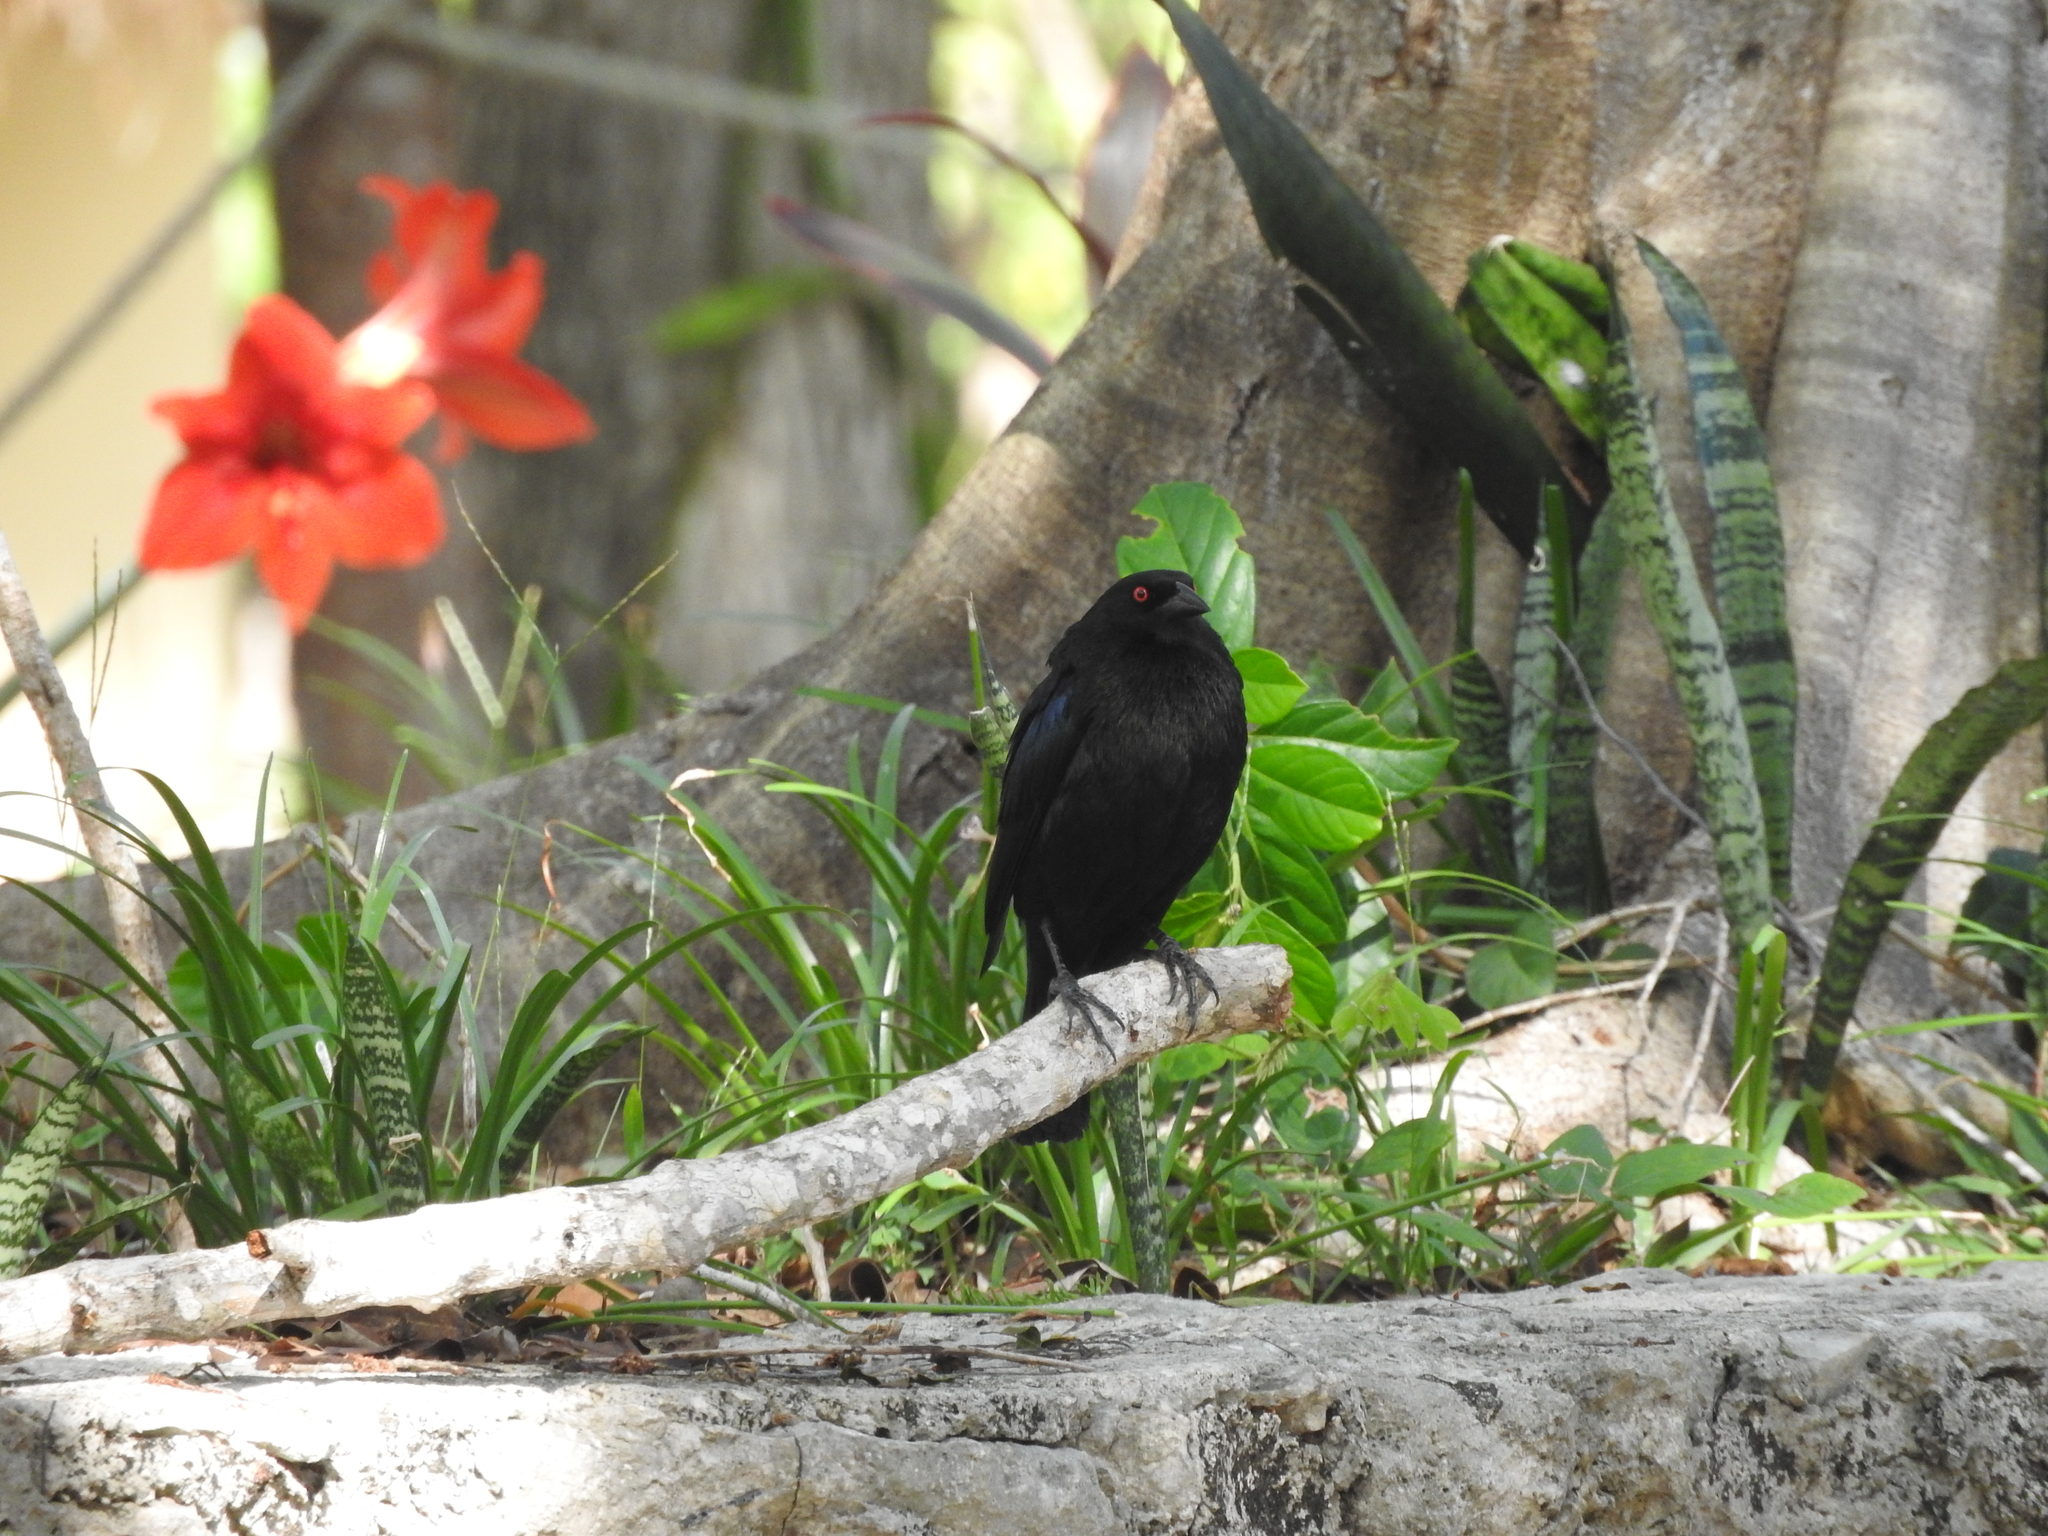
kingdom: Animalia
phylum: Chordata
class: Aves
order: Passeriformes
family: Icteridae
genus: Molothrus
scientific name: Molothrus aeneus
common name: Bronzed cowbird
